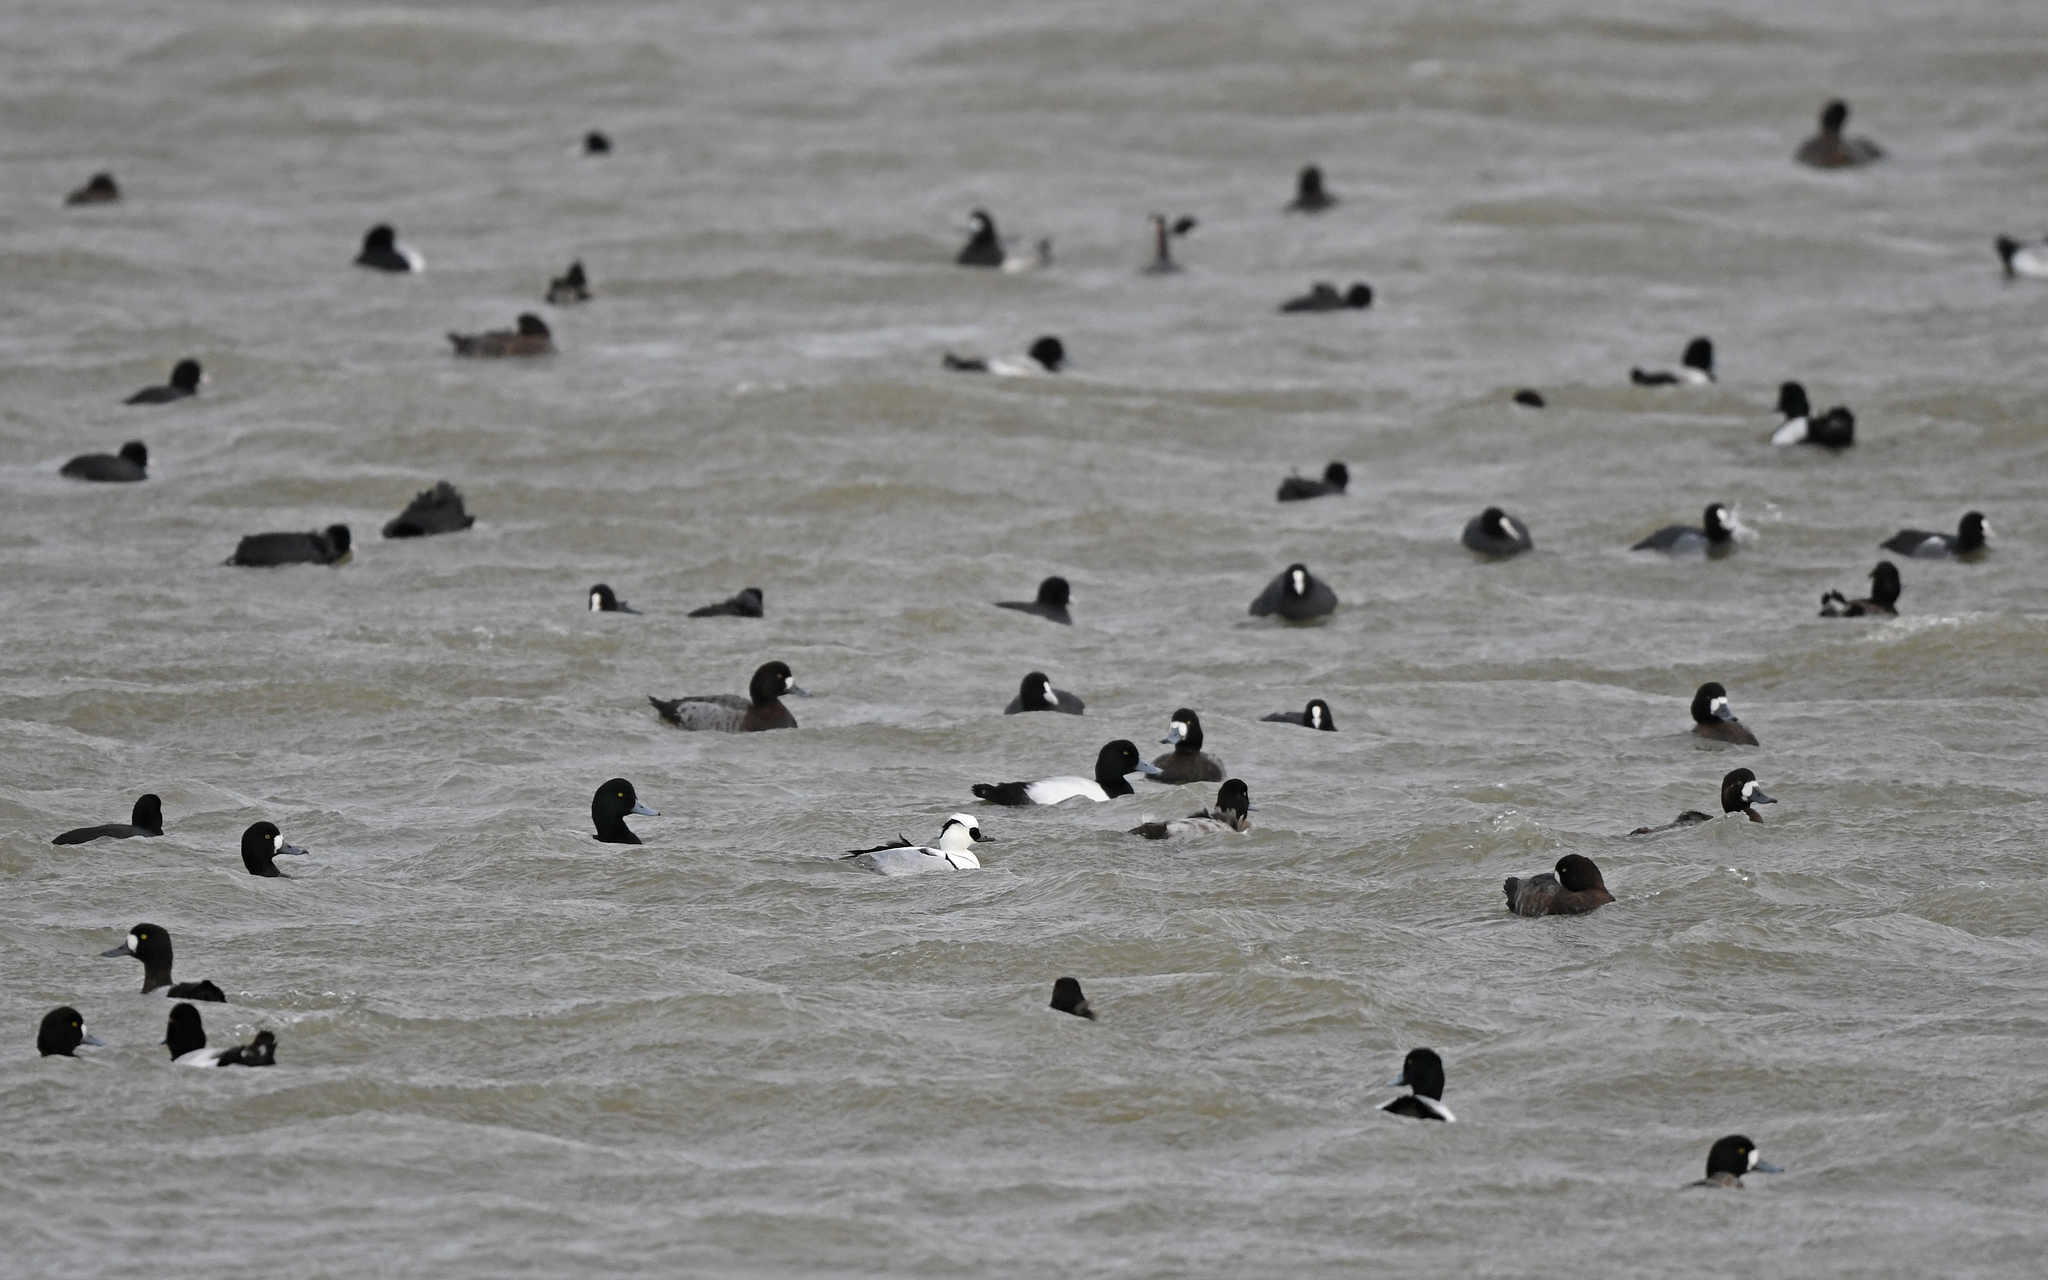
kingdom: Animalia
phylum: Chordata
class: Aves
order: Anseriformes
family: Anatidae
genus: Mergellus
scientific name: Mergellus albellus
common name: Smew
